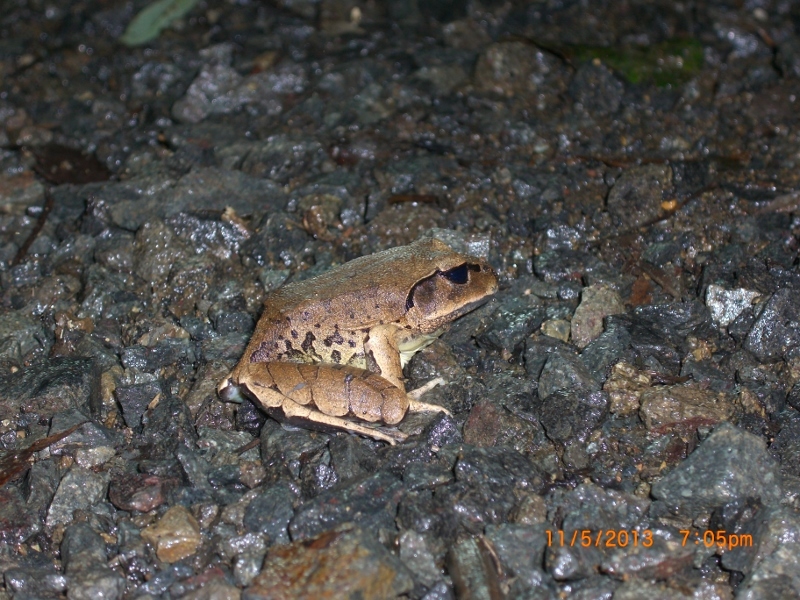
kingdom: Animalia
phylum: Chordata
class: Amphibia
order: Anura
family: Myobatrachidae
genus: Mixophyes
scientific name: Mixophyes fasciolatus
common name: Great barred river-frog
